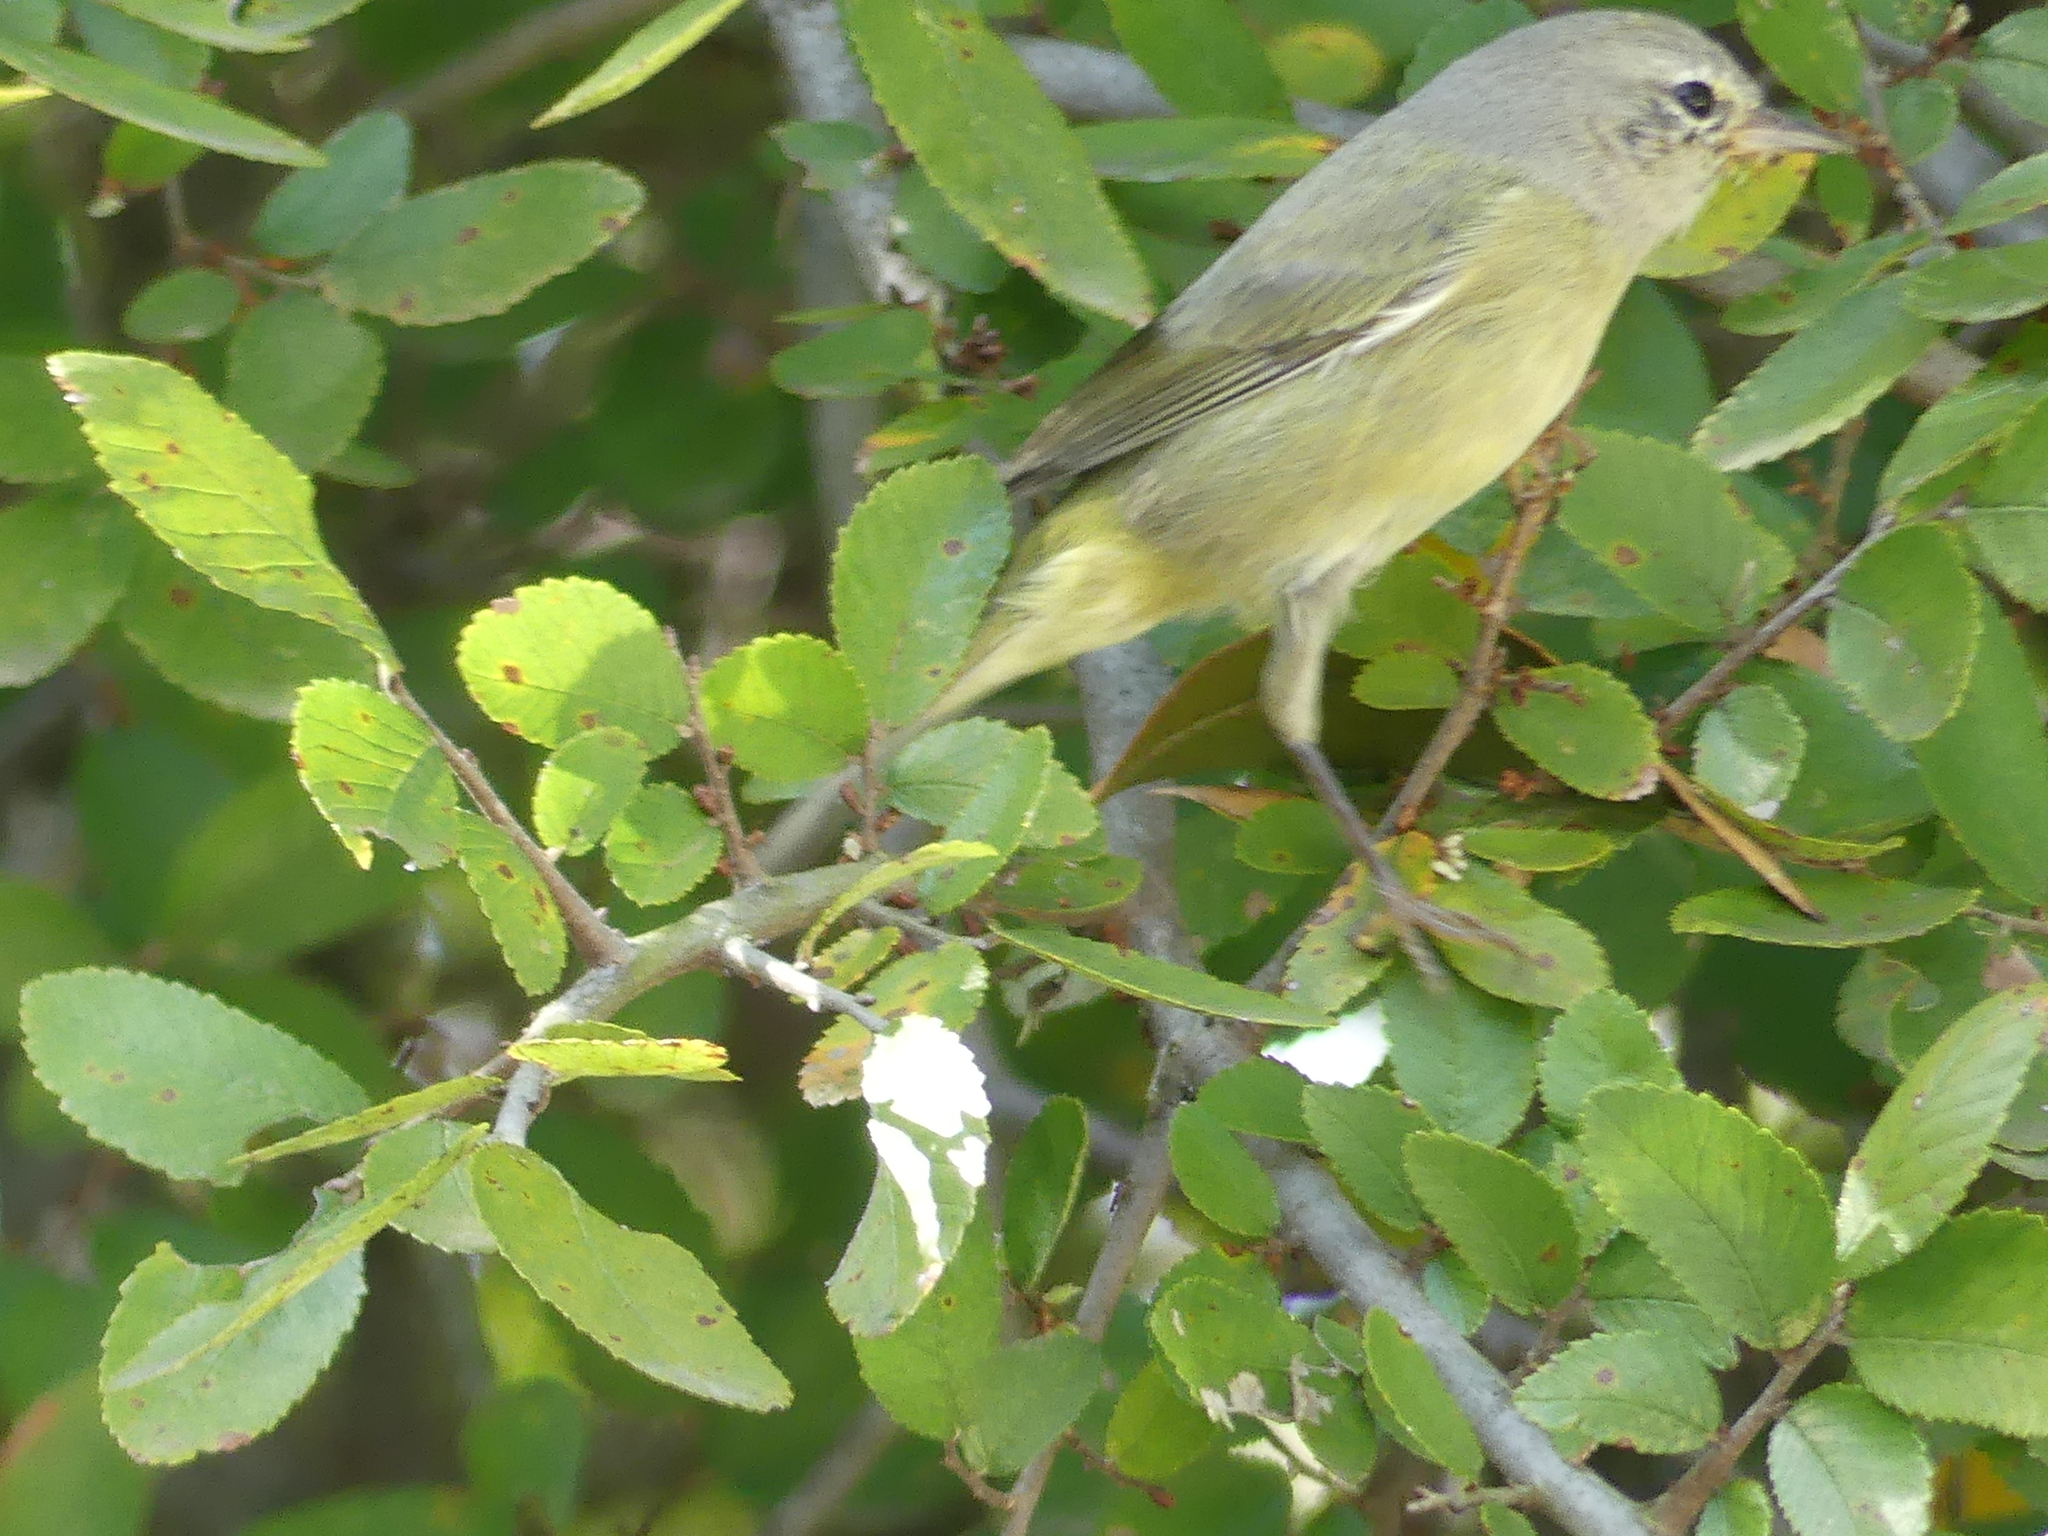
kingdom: Animalia
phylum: Chordata
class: Aves
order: Passeriformes
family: Parulidae
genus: Leiothlypis
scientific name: Leiothlypis celata
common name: Orange-crowned warbler
